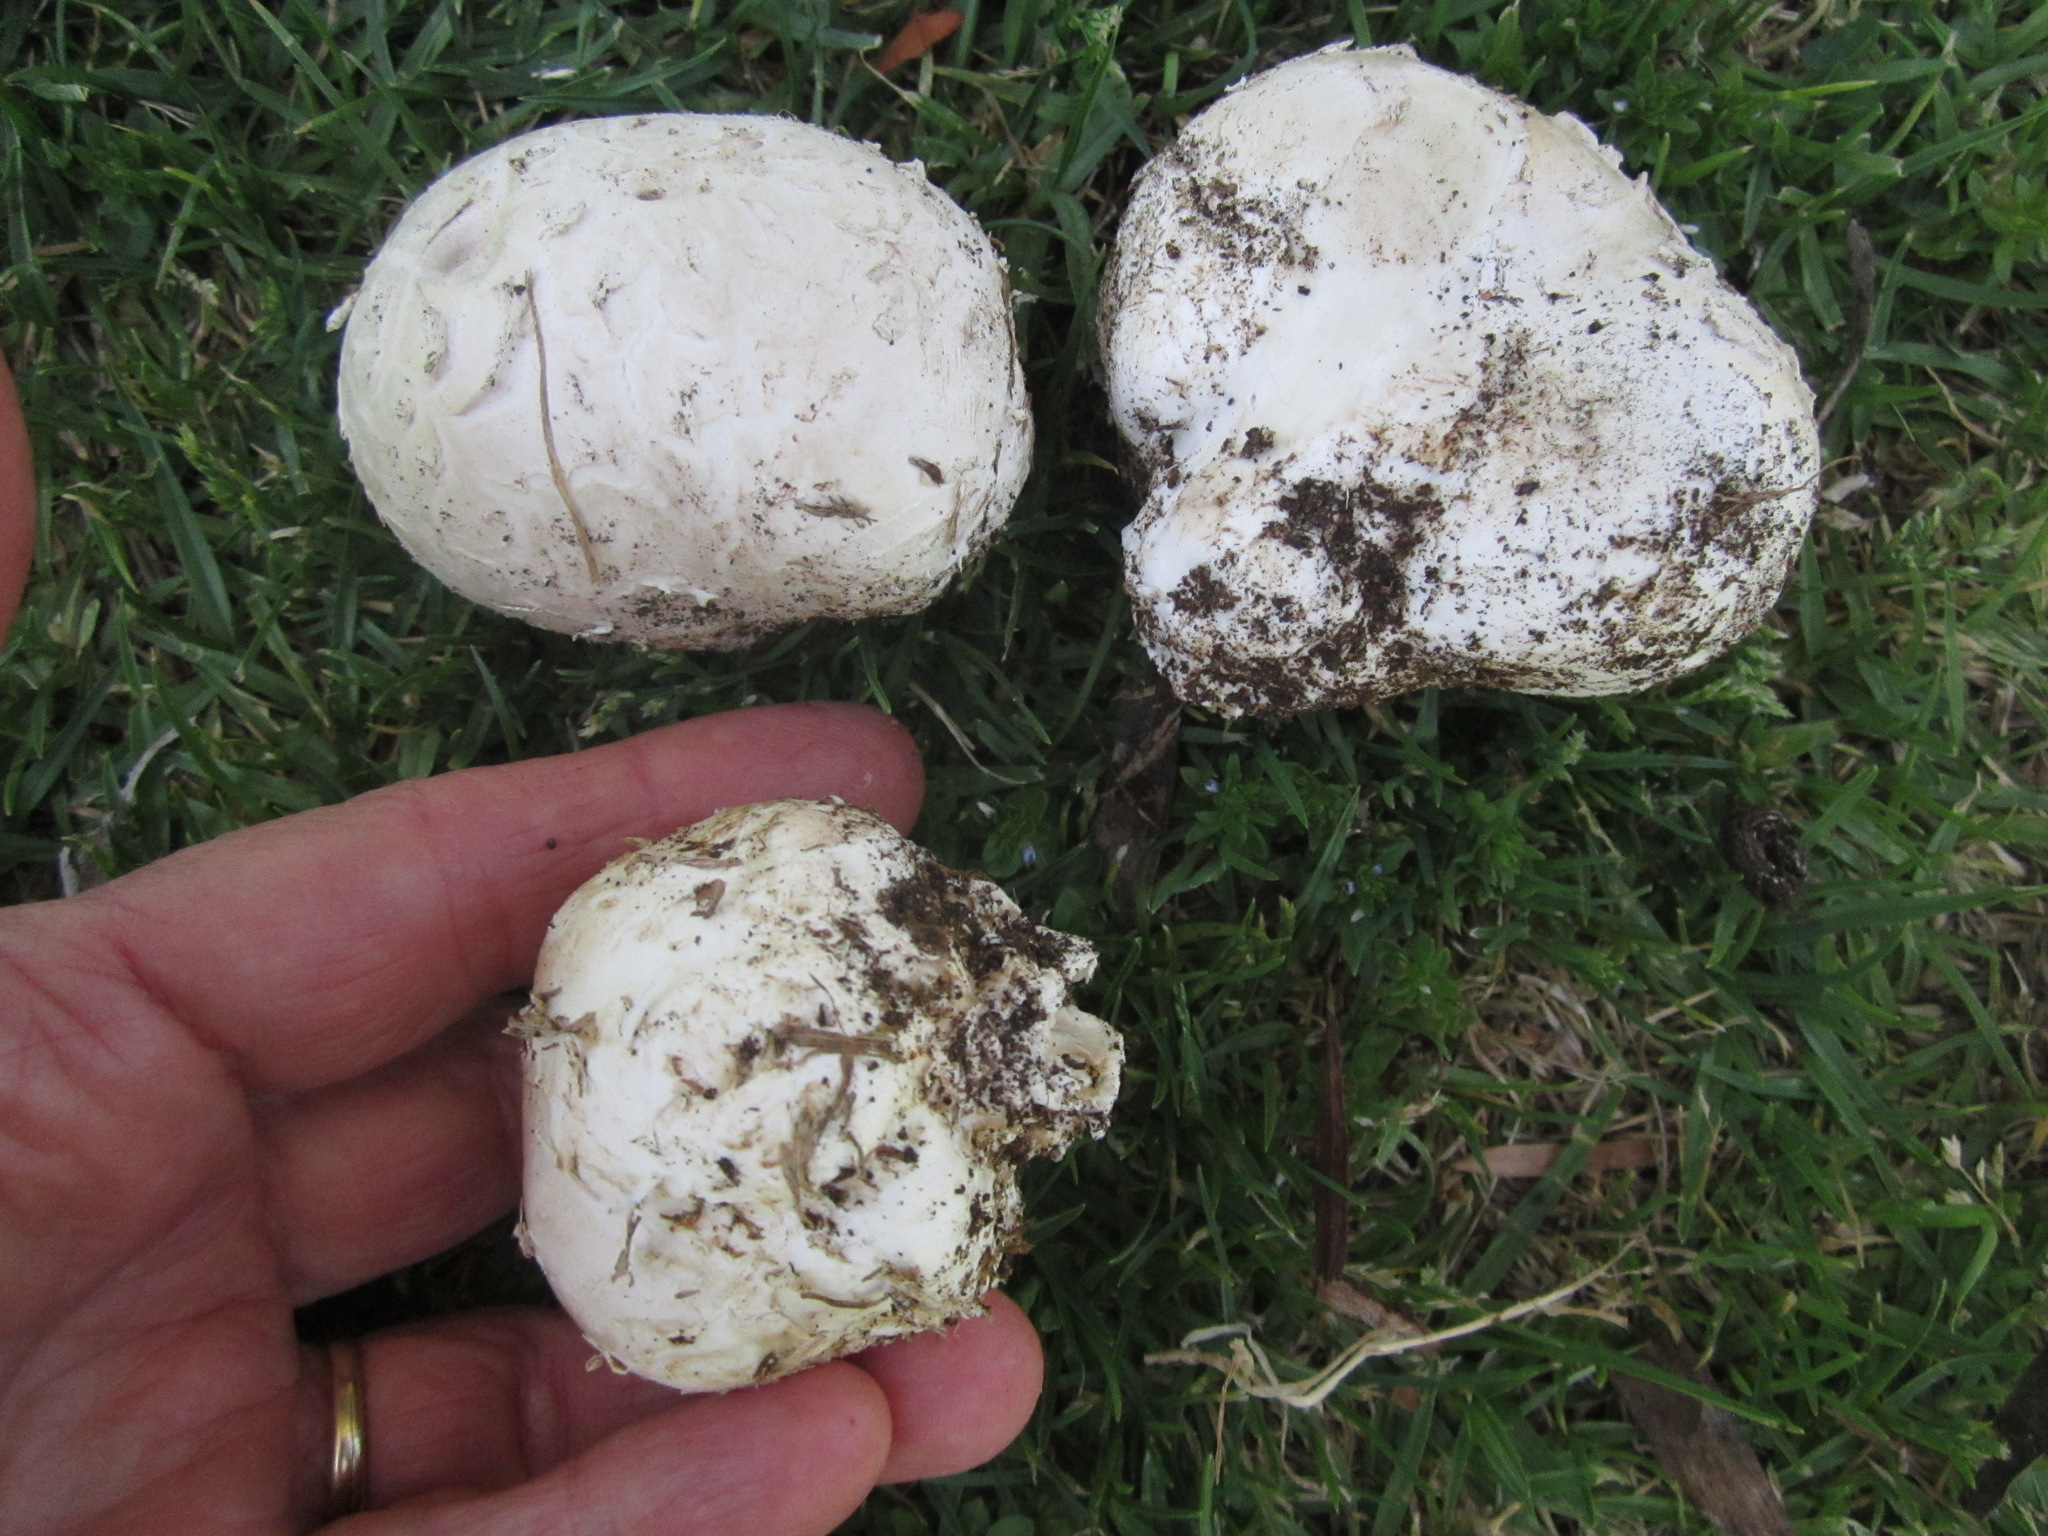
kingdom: Fungi
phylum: Basidiomycota
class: Agaricomycetes
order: Agaricales
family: Lycoperdaceae
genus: Langermannia
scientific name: Langermannia pachyderma
